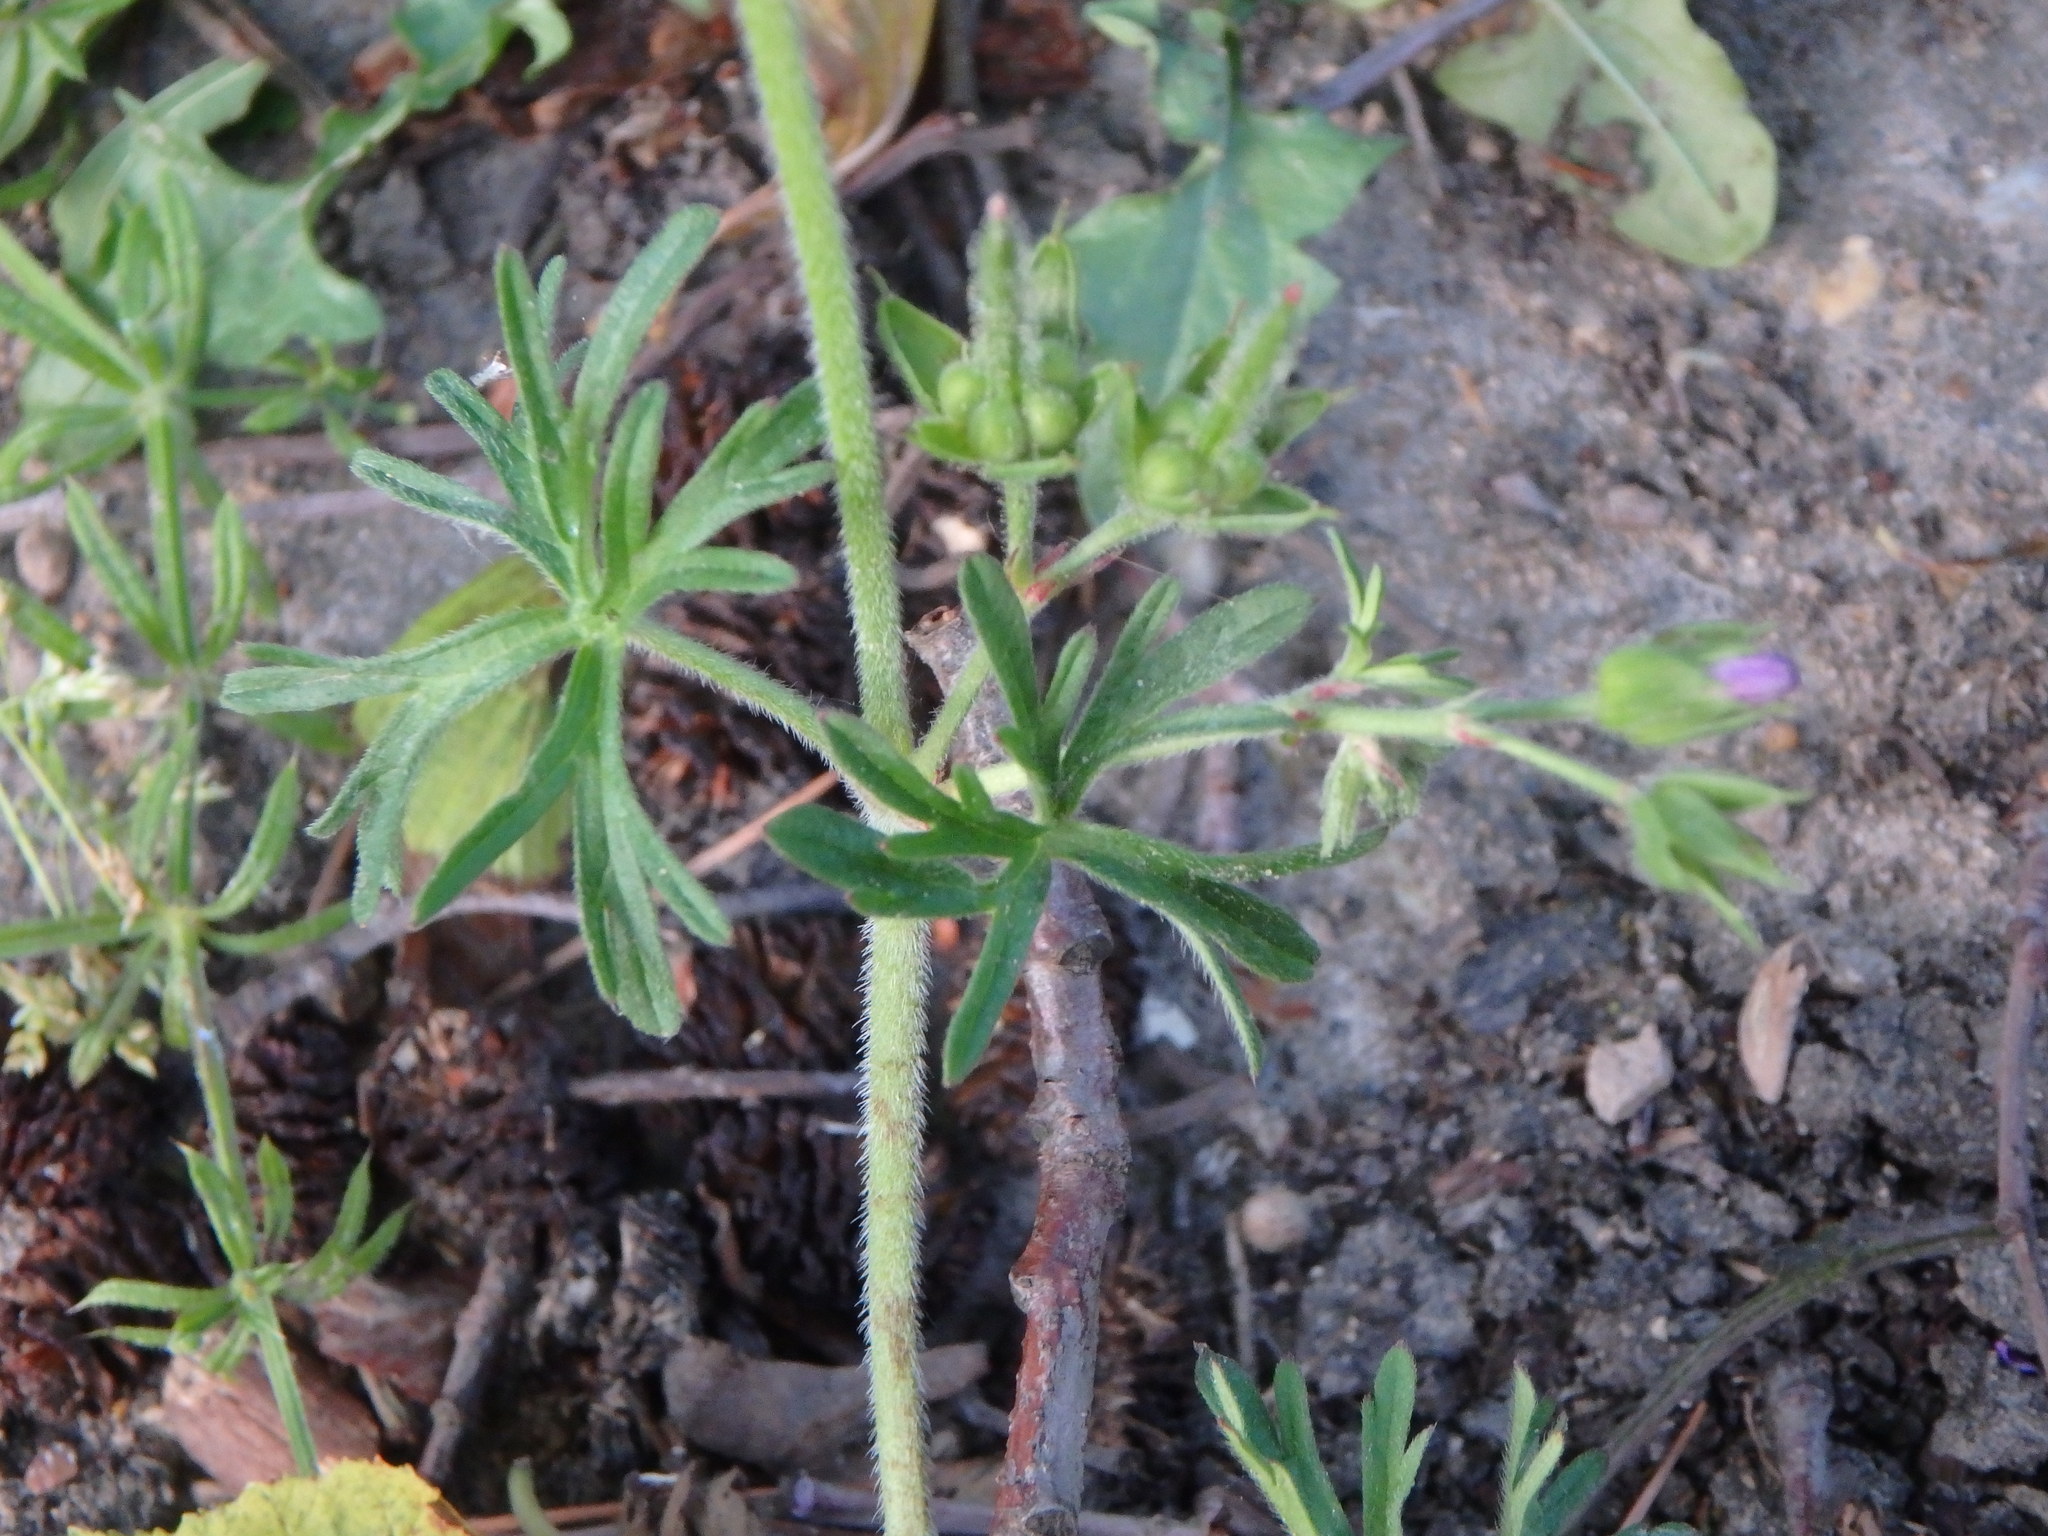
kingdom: Plantae
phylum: Tracheophyta
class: Magnoliopsida
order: Geraniales
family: Geraniaceae
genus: Geranium
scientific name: Geranium dissectum
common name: Cut-leaved crane's-bill
